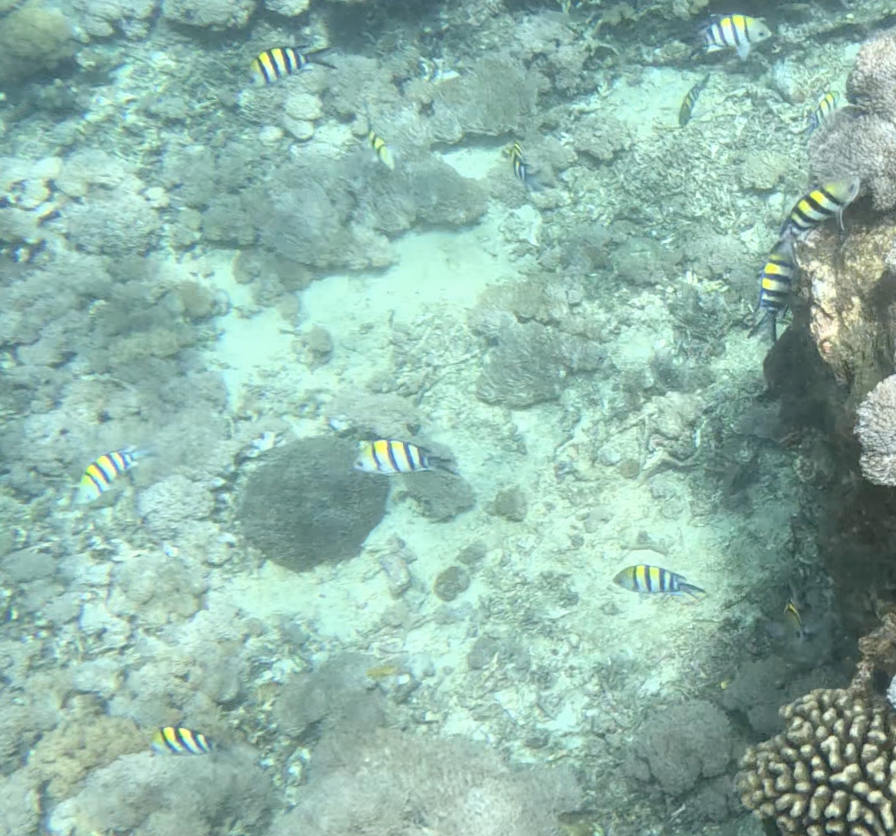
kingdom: Animalia
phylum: Chordata
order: Perciformes
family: Pomacentridae
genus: Abudefduf
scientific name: Abudefduf vaigiensis
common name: Indo-pacific sergeant
